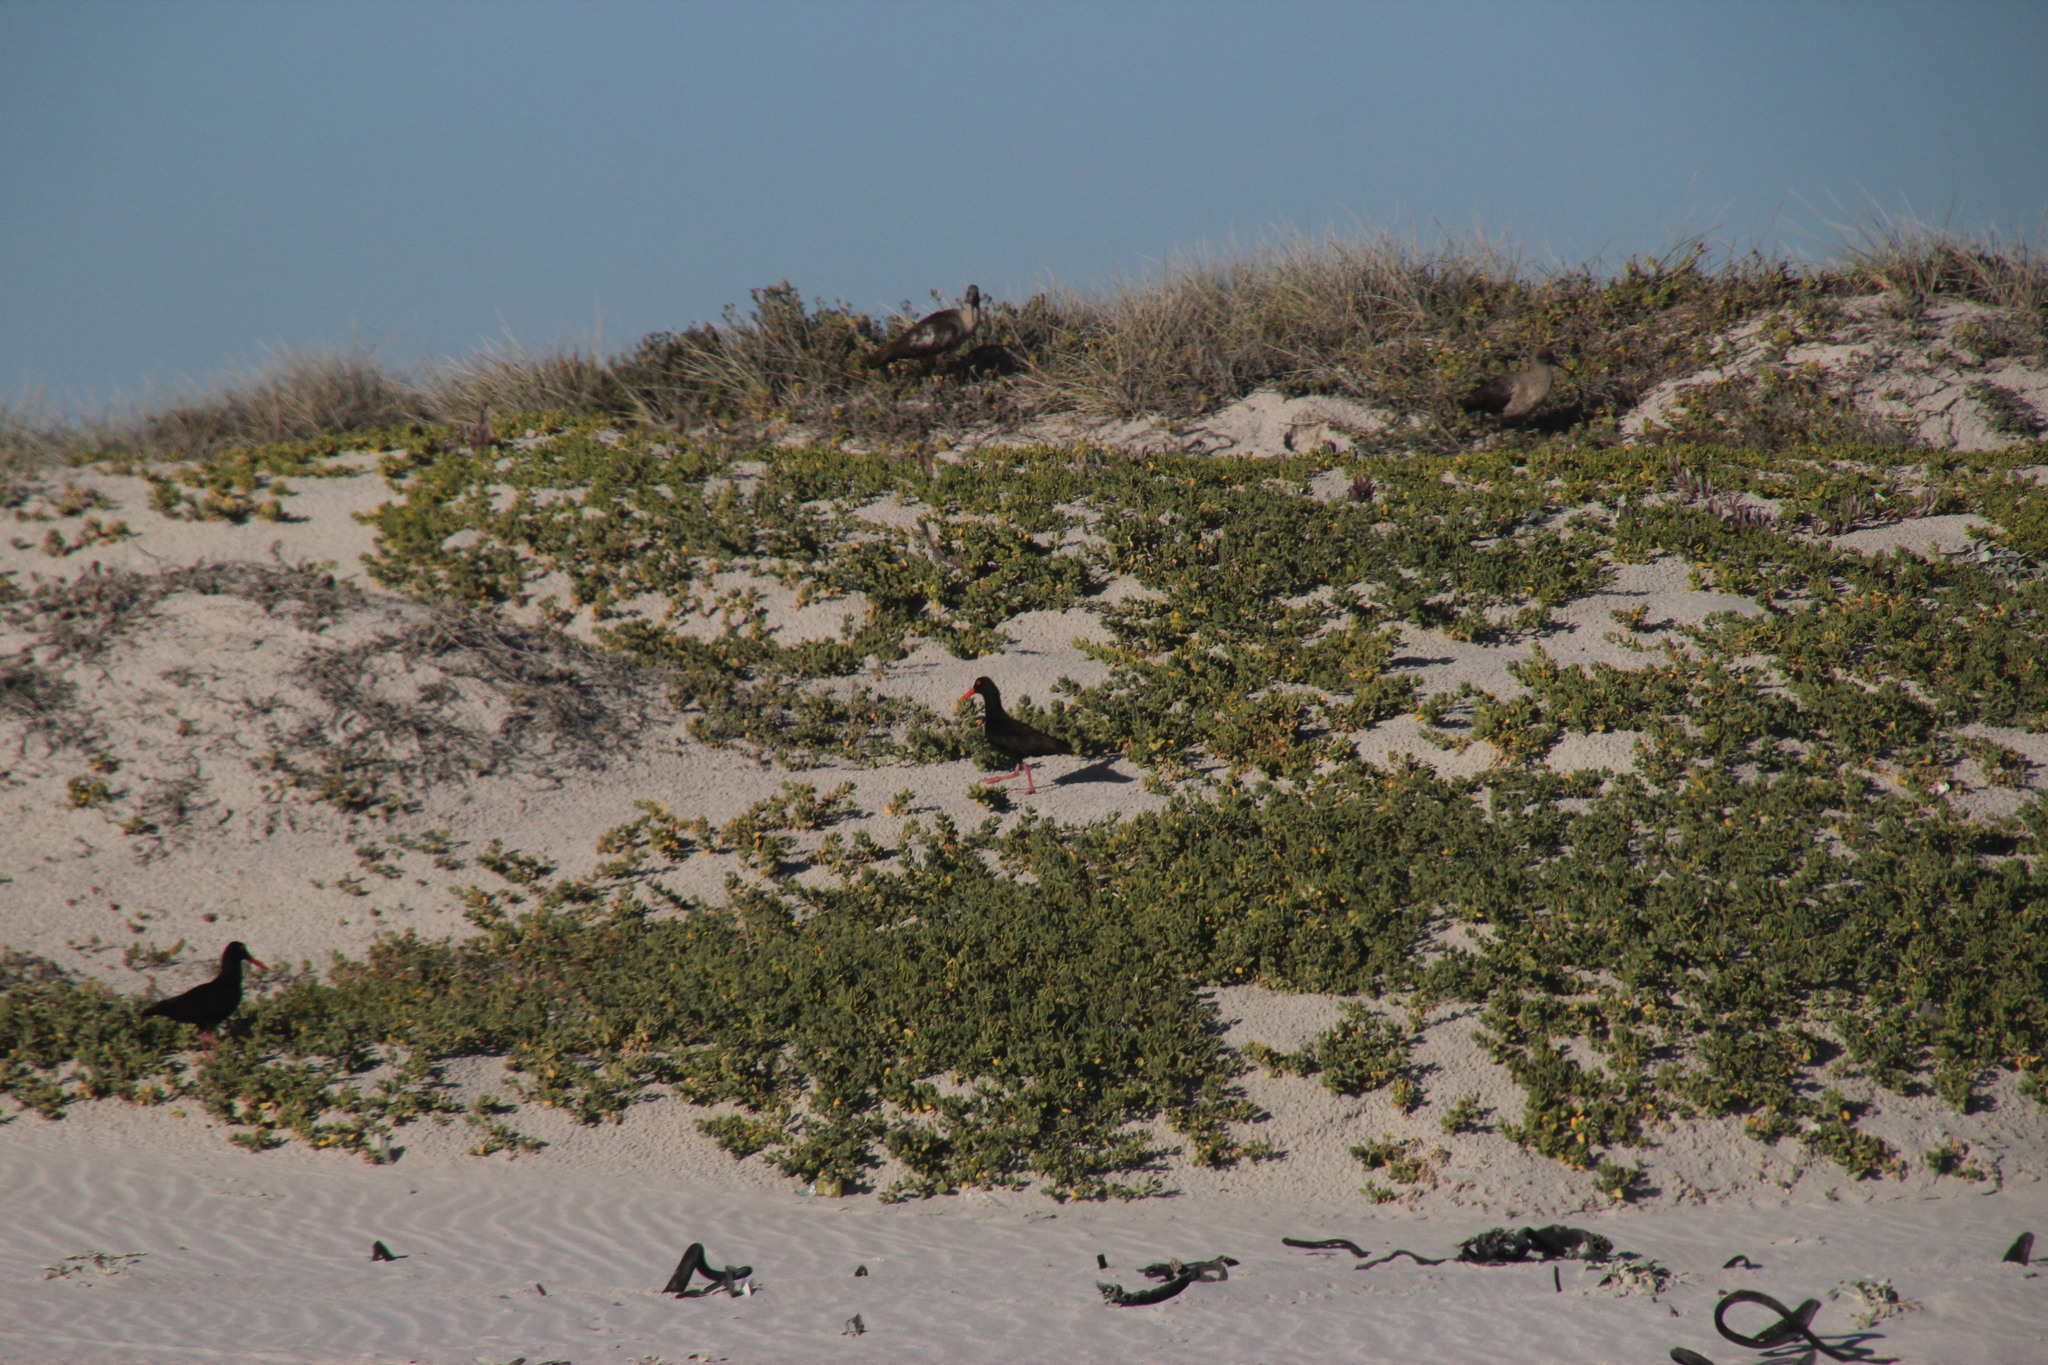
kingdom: Animalia
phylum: Chordata
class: Aves
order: Pelecaniformes
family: Threskiornithidae
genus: Bostrychia
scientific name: Bostrychia hagedash
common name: Hadada ibis
